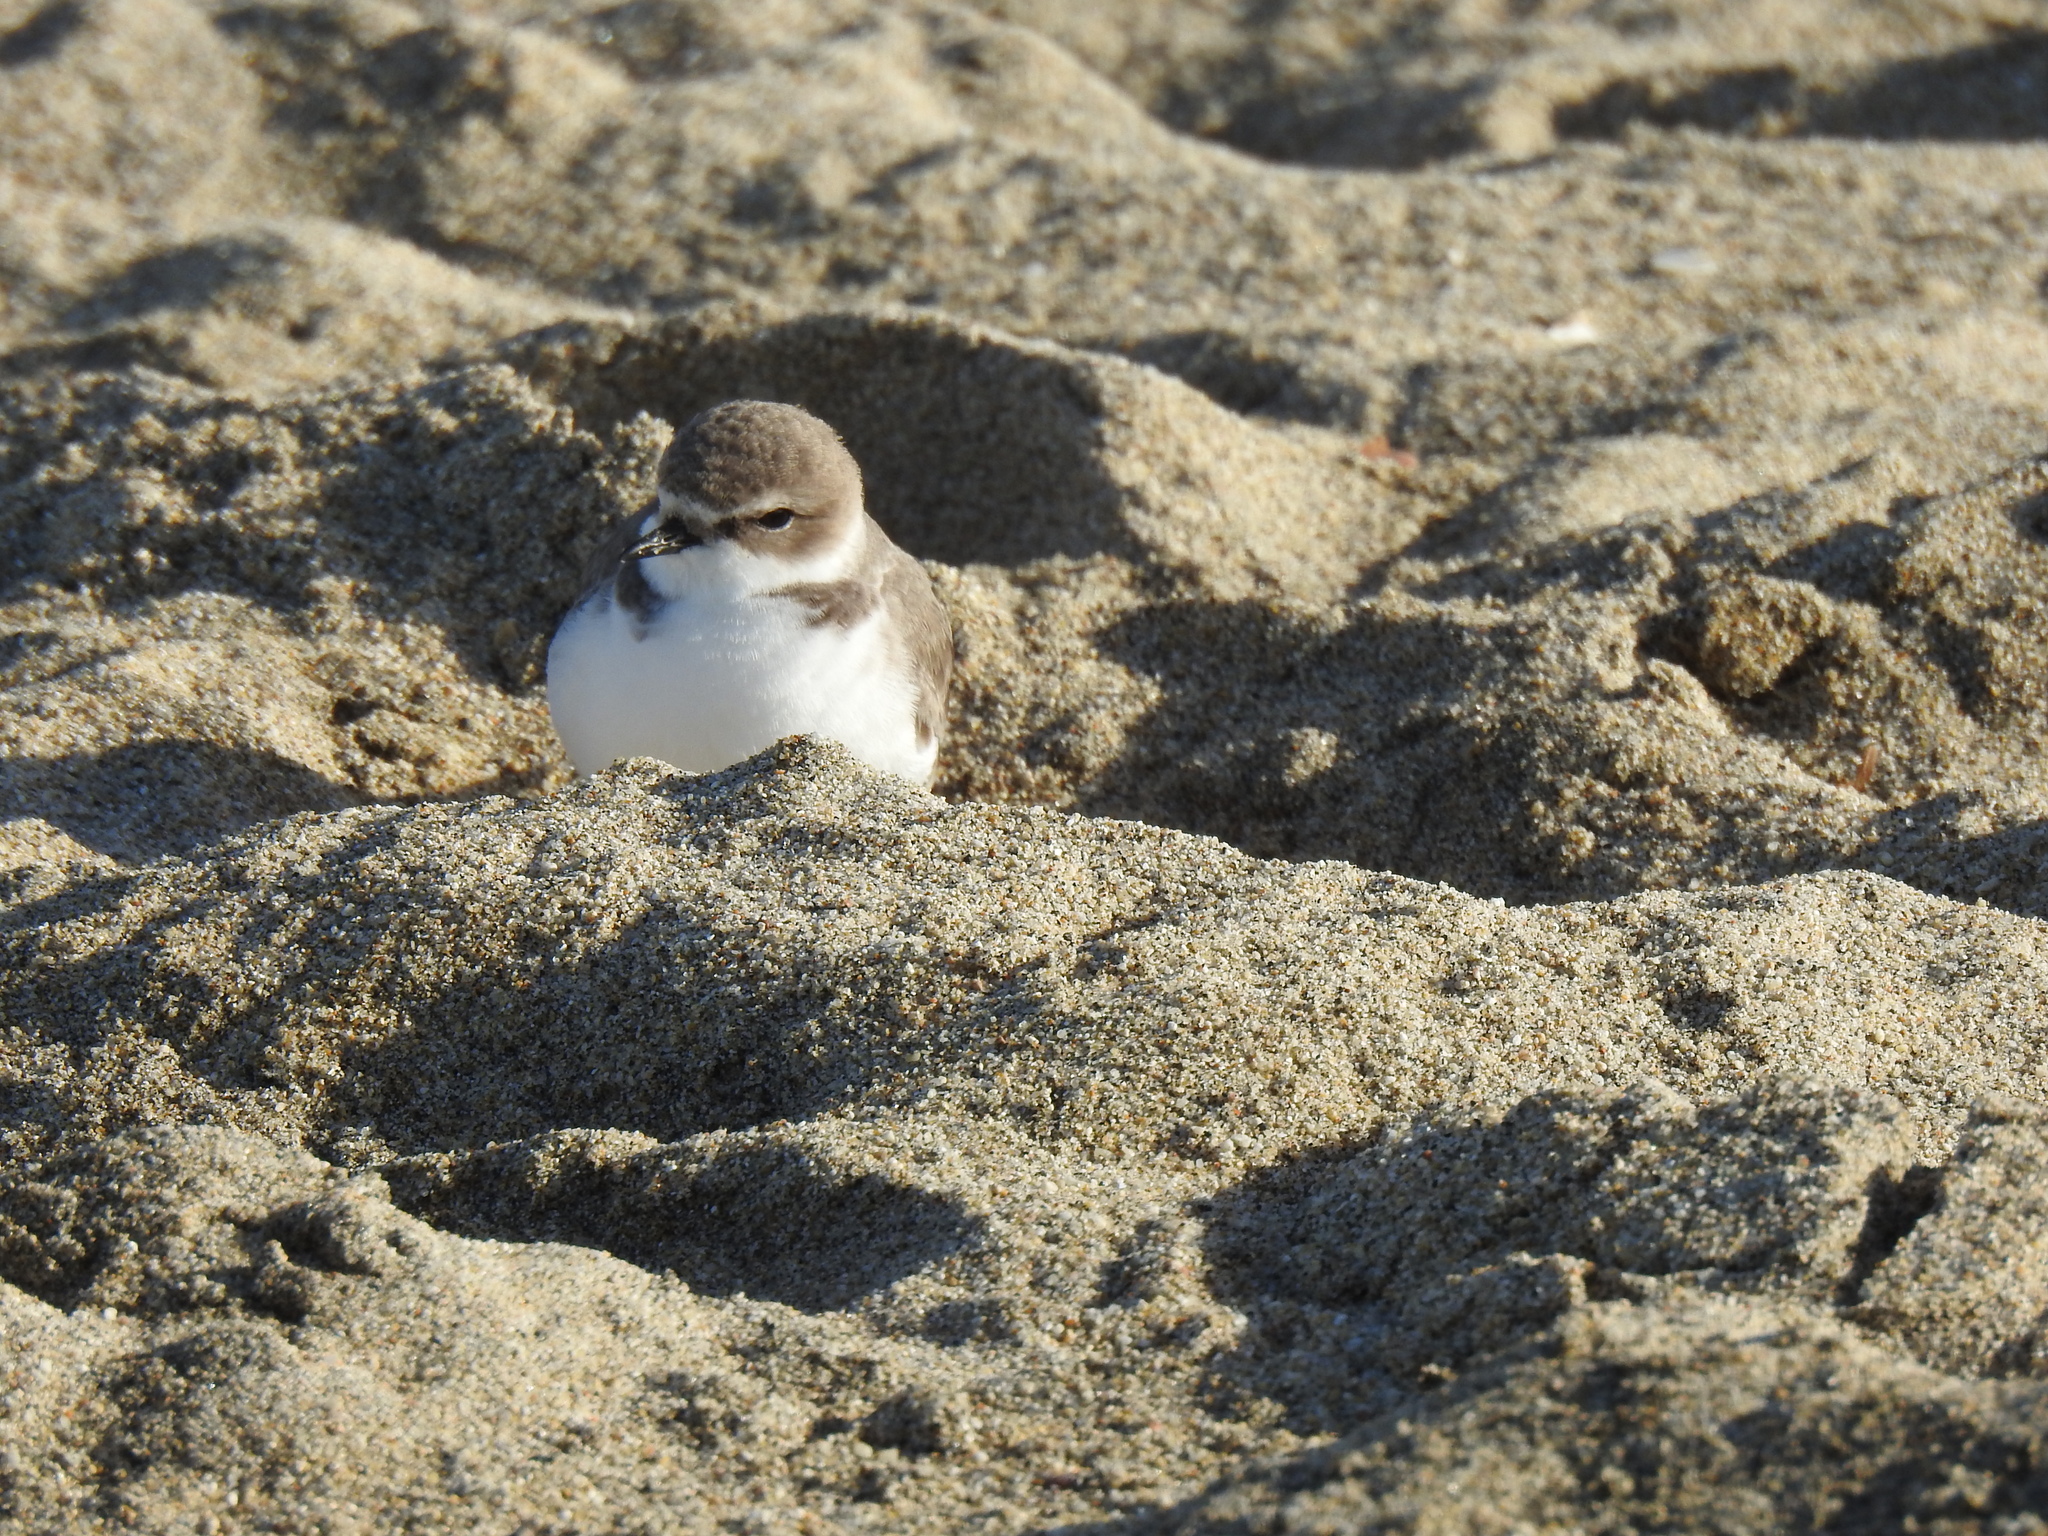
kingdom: Animalia
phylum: Chordata
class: Aves
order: Charadriiformes
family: Charadriidae
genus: Anarhynchus
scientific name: Anarhynchus
